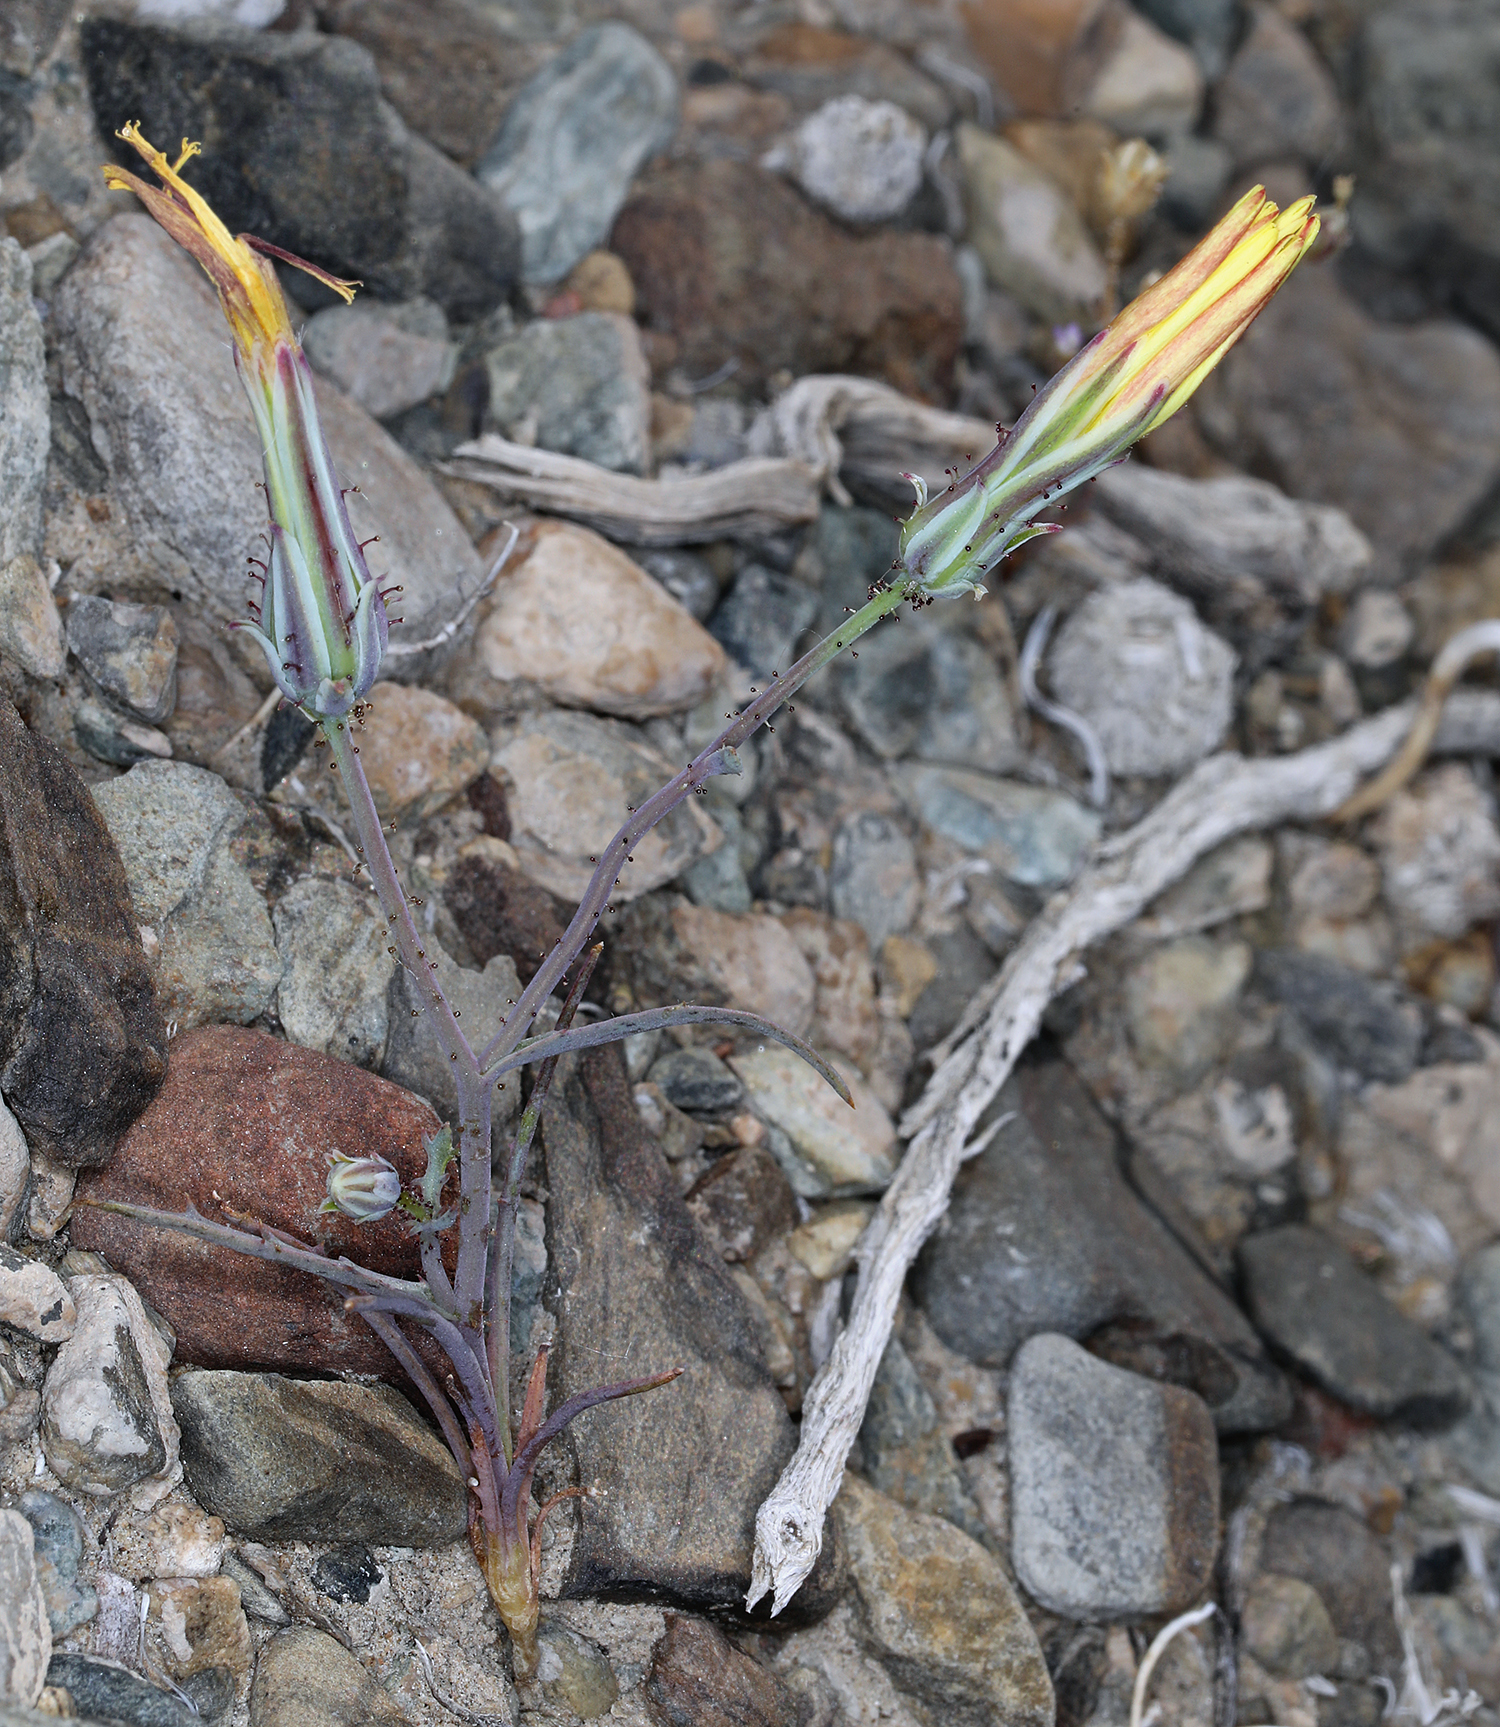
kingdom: Plantae
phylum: Tracheophyta
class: Magnoliopsida
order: Asterales
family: Asteraceae
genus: Calycoseris
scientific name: Calycoseris parryi
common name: Yellow tackstem
